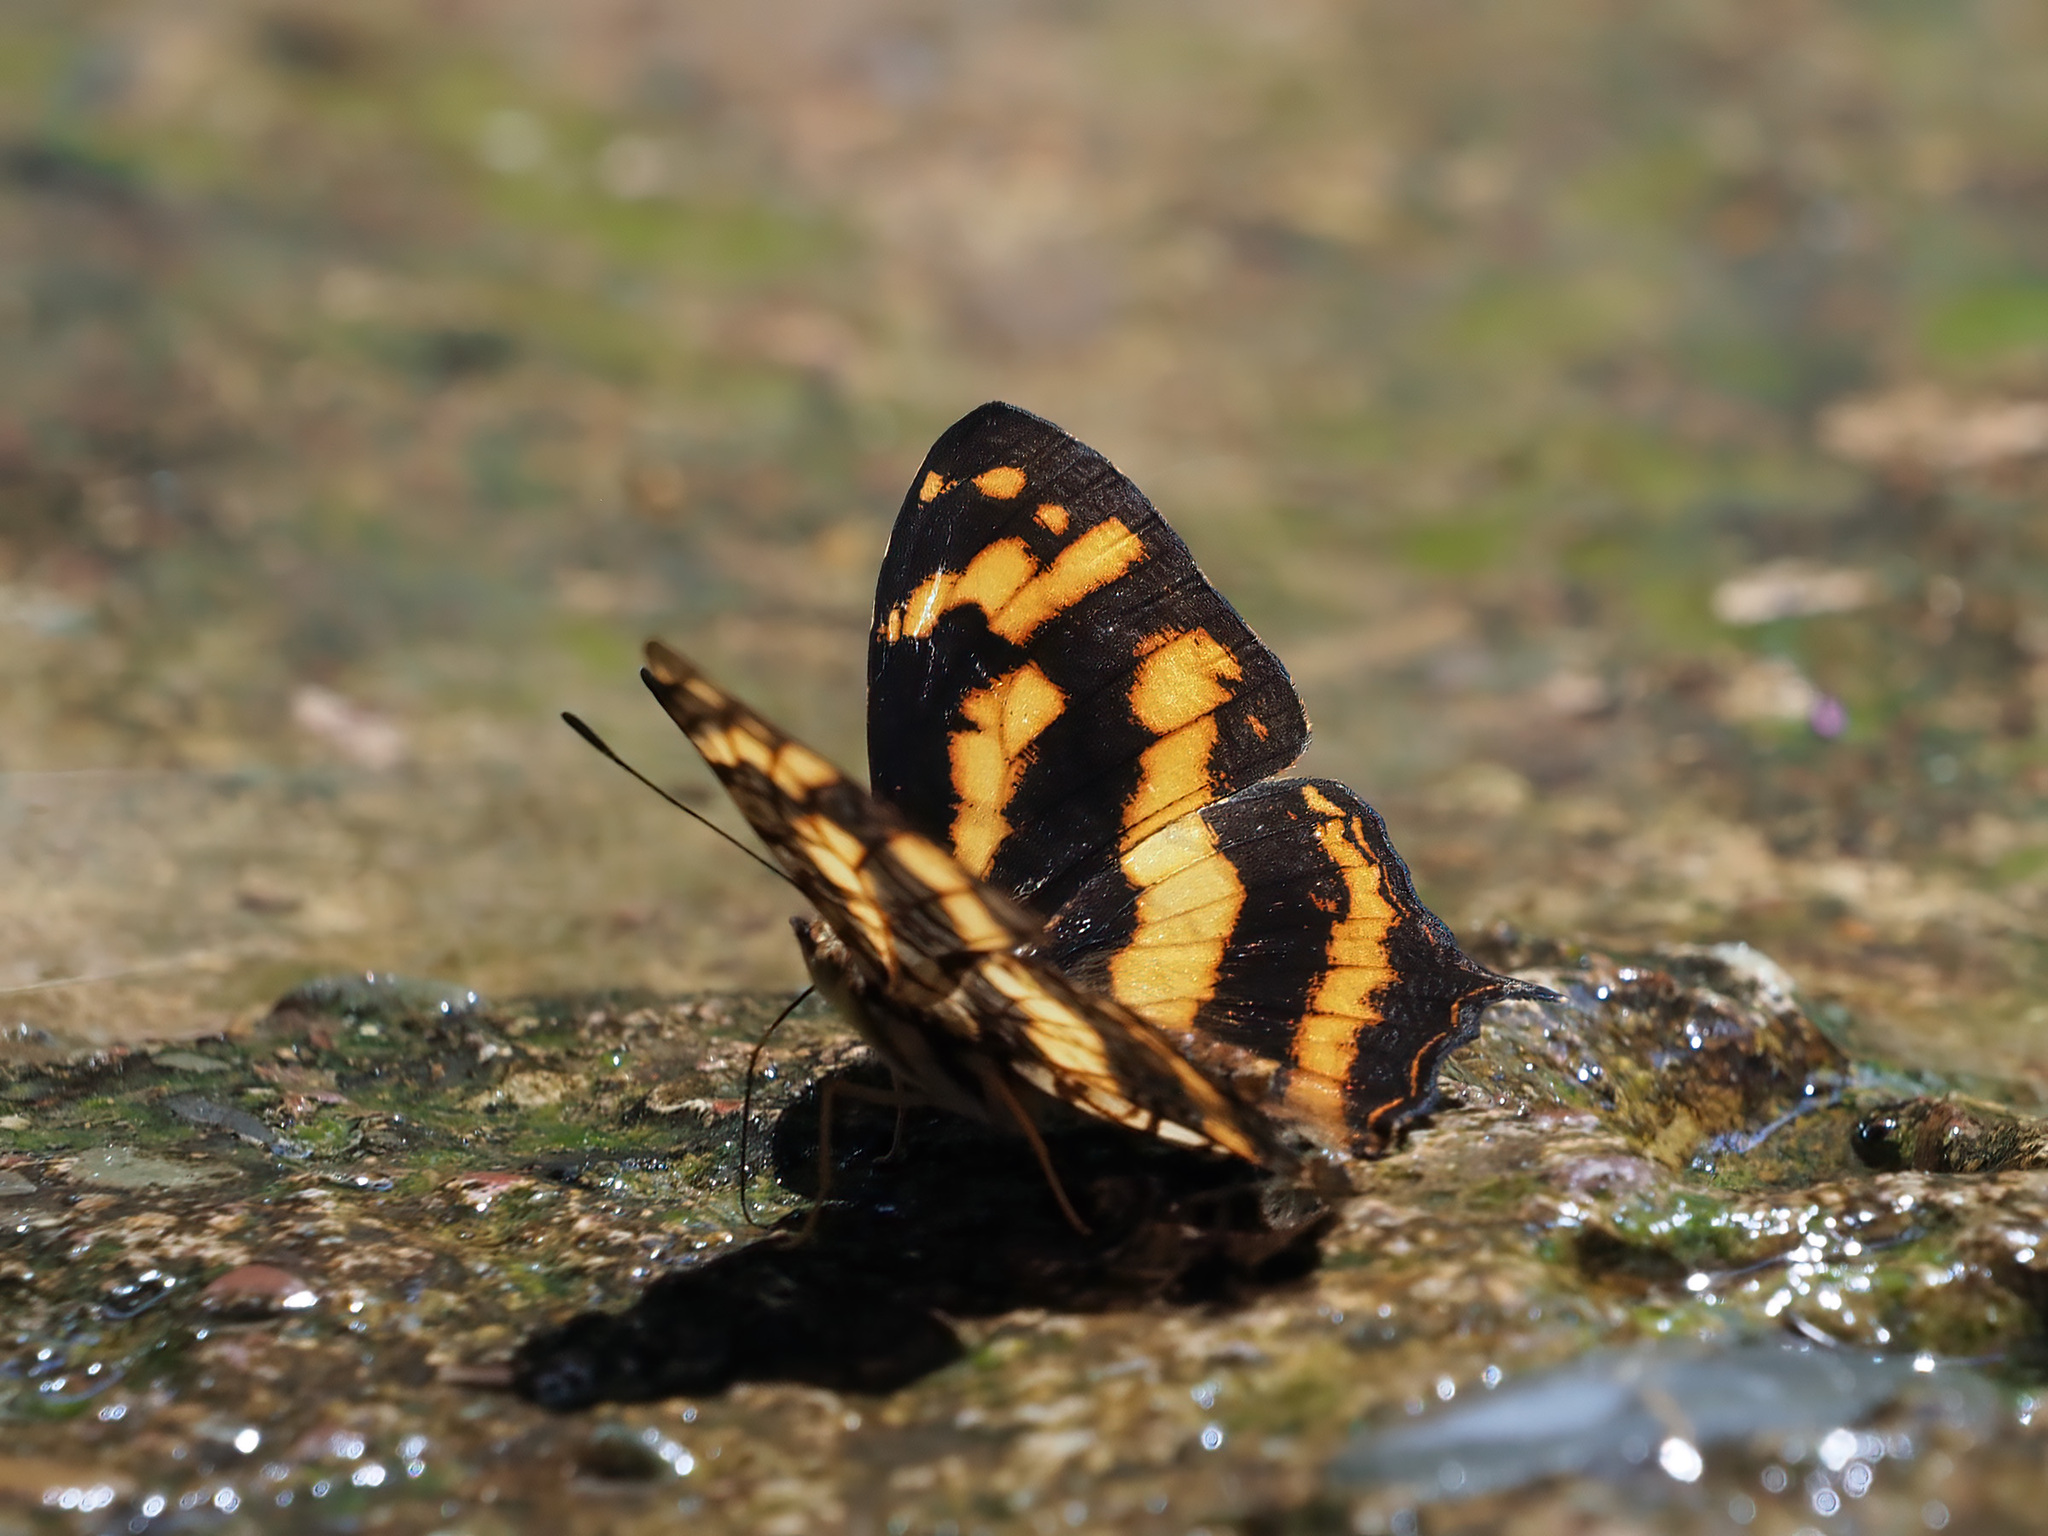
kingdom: Animalia
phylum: Arthropoda
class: Insecta
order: Lepidoptera
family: Nymphalidae
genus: Symbrenthia
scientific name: Symbrenthia hypatia
